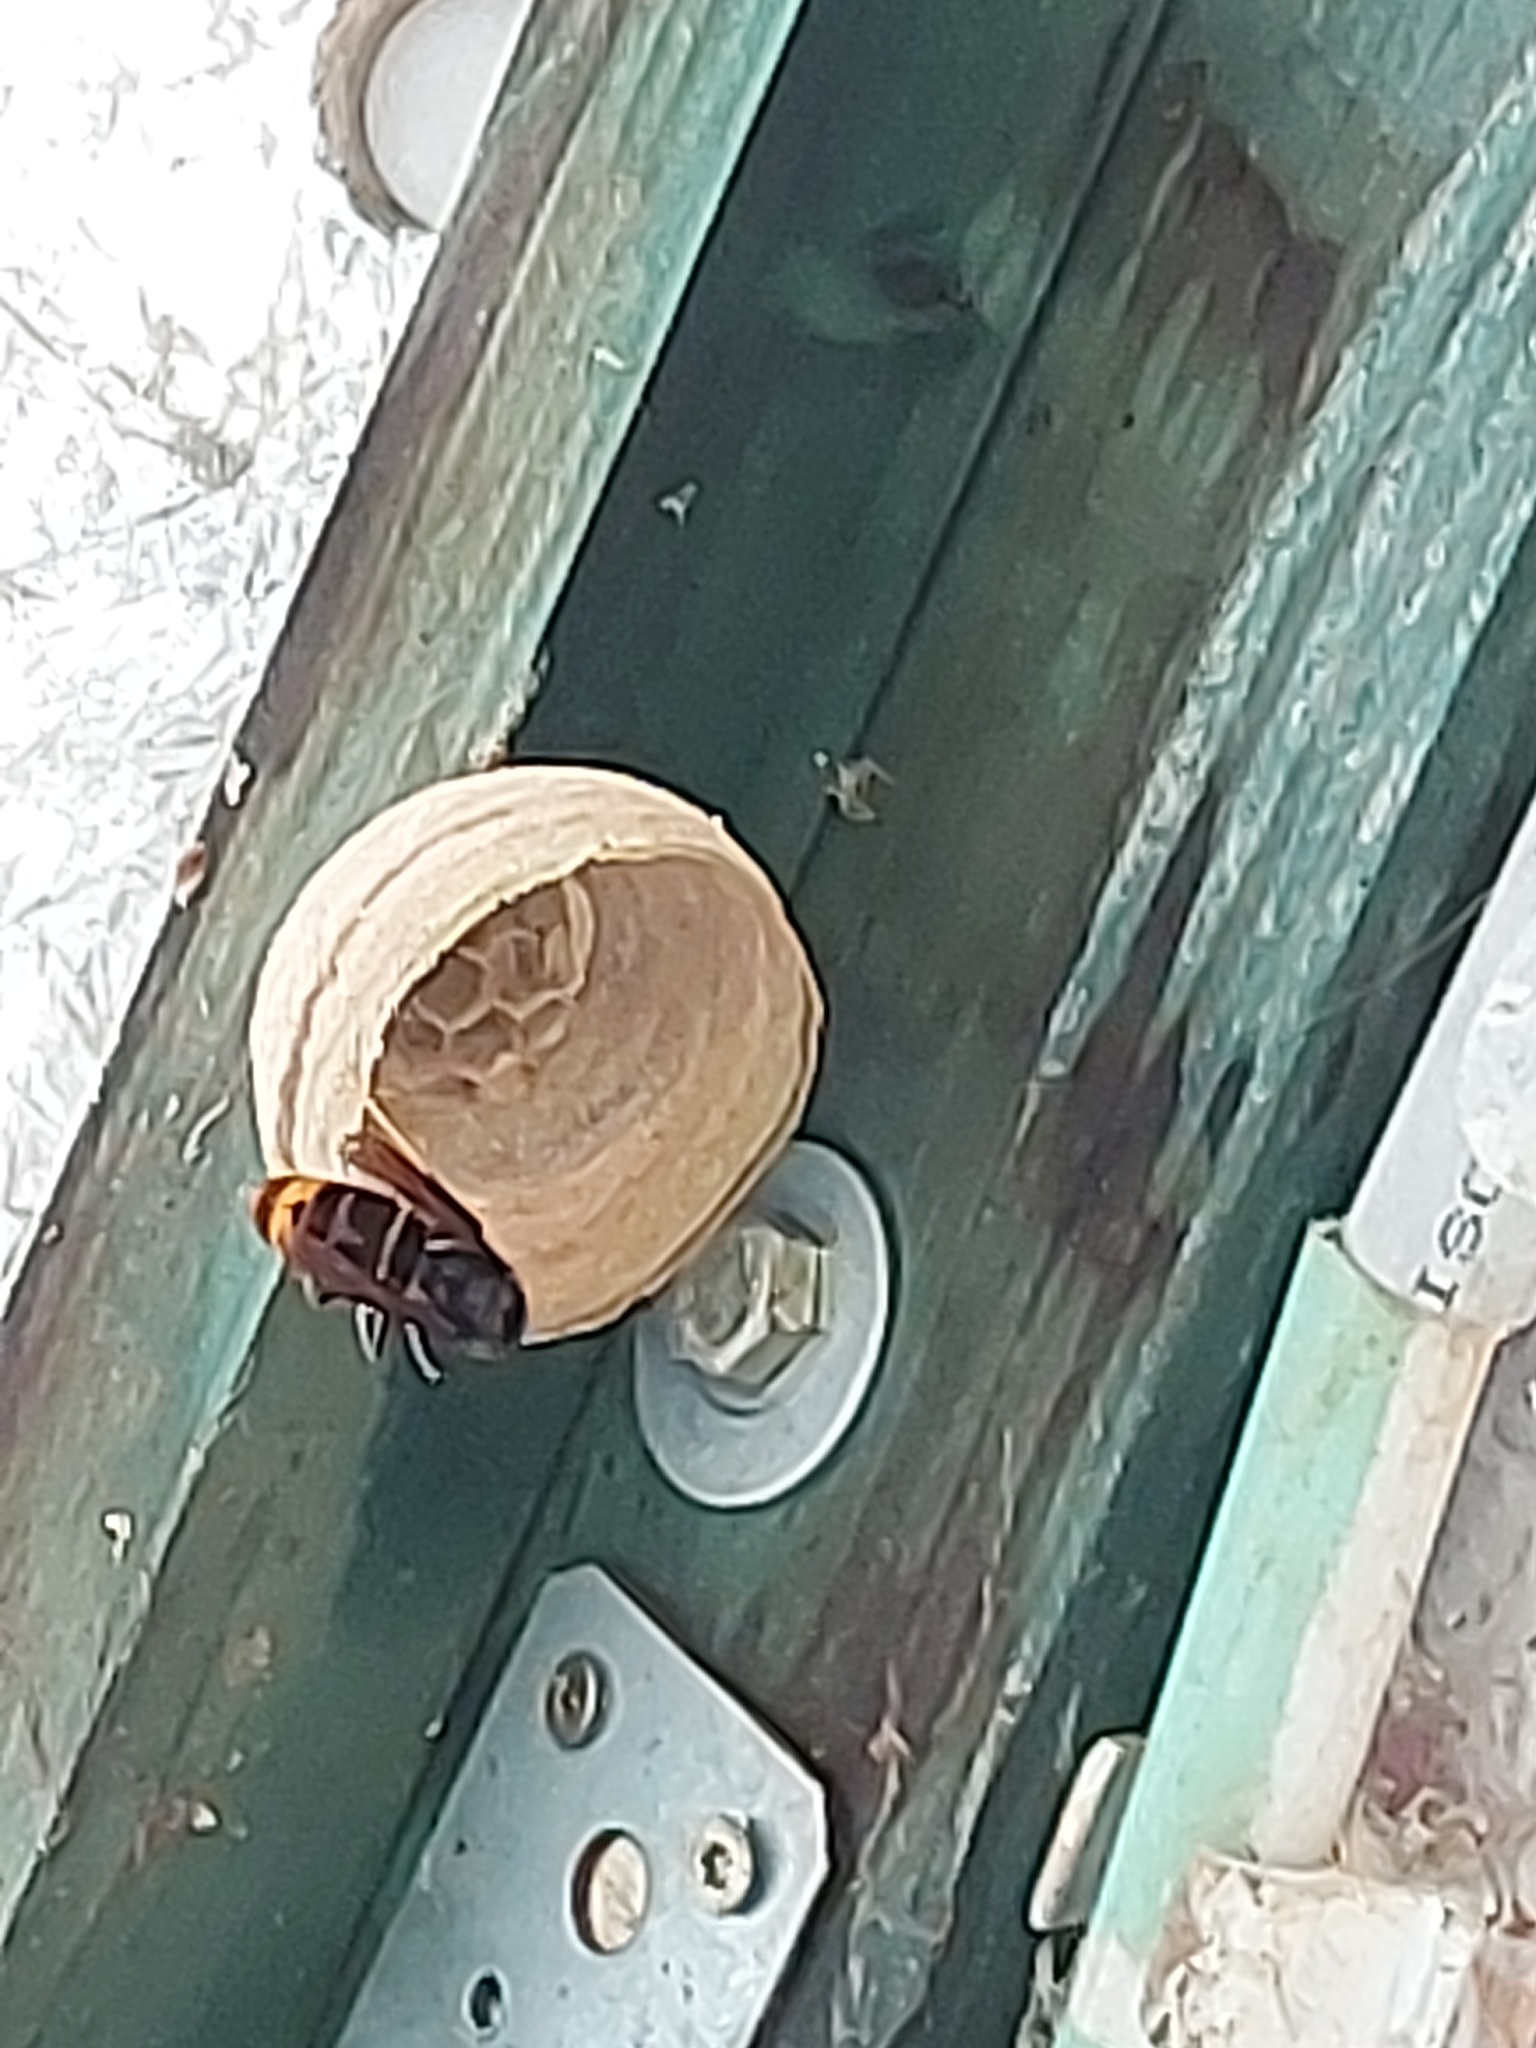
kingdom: Animalia
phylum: Arthropoda
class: Insecta
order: Hymenoptera
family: Vespidae
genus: Vespa
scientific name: Vespa velutina
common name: Asian hornet
